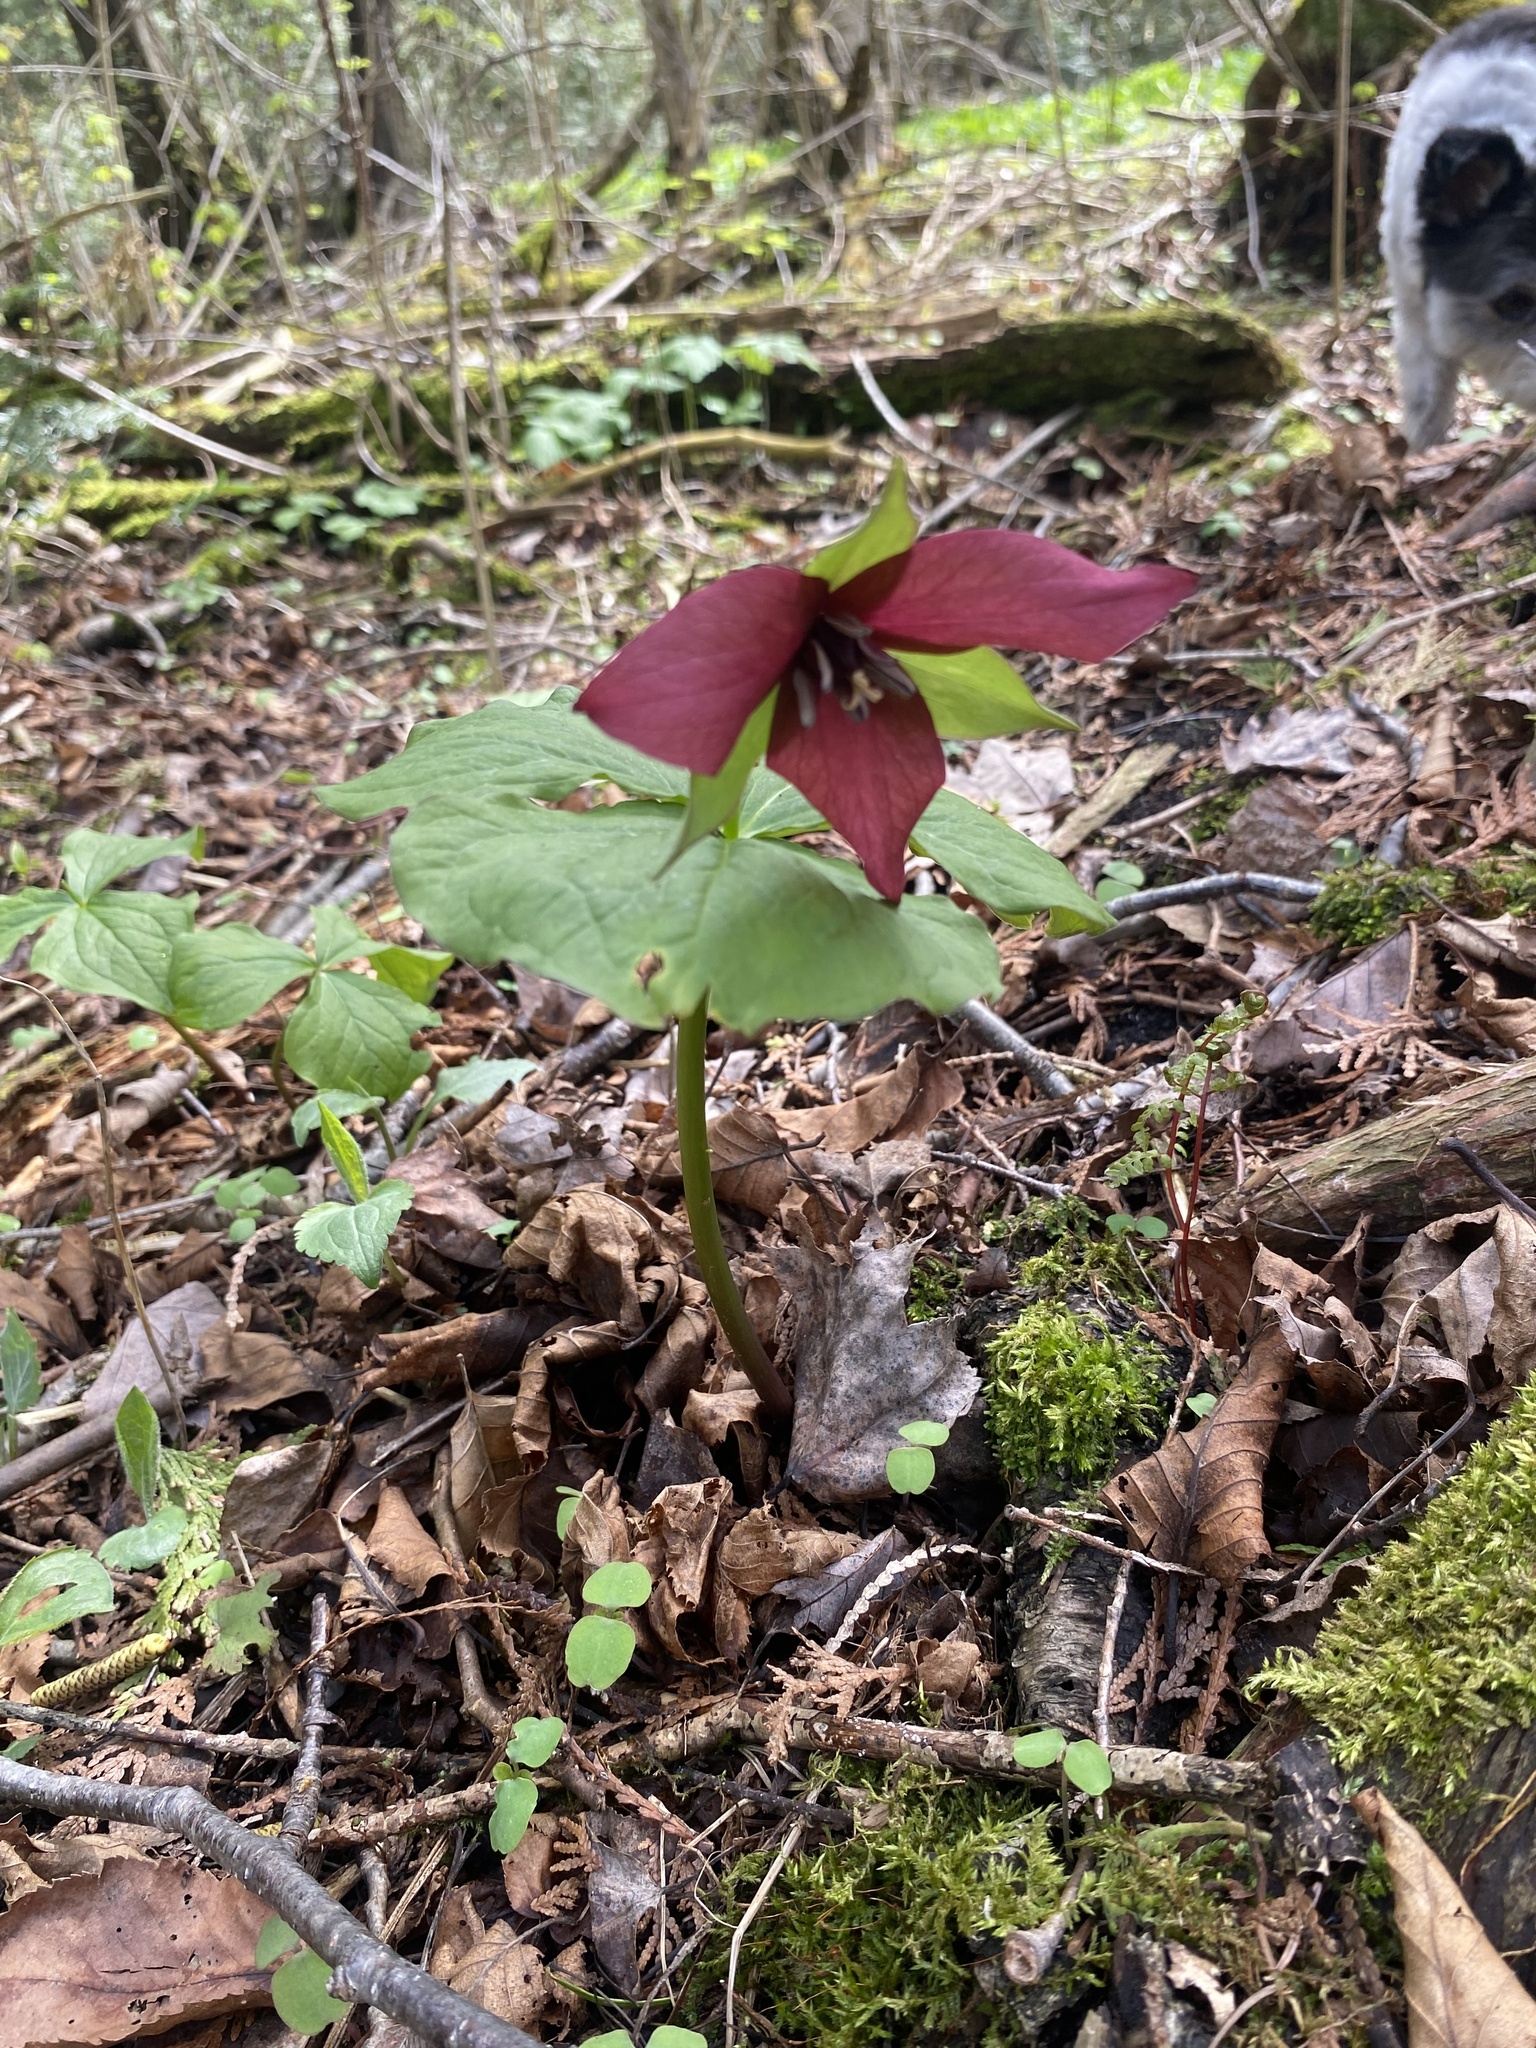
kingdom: Plantae
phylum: Tracheophyta
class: Liliopsida
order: Liliales
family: Melanthiaceae
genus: Trillium
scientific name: Trillium erectum
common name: Purple trillium
